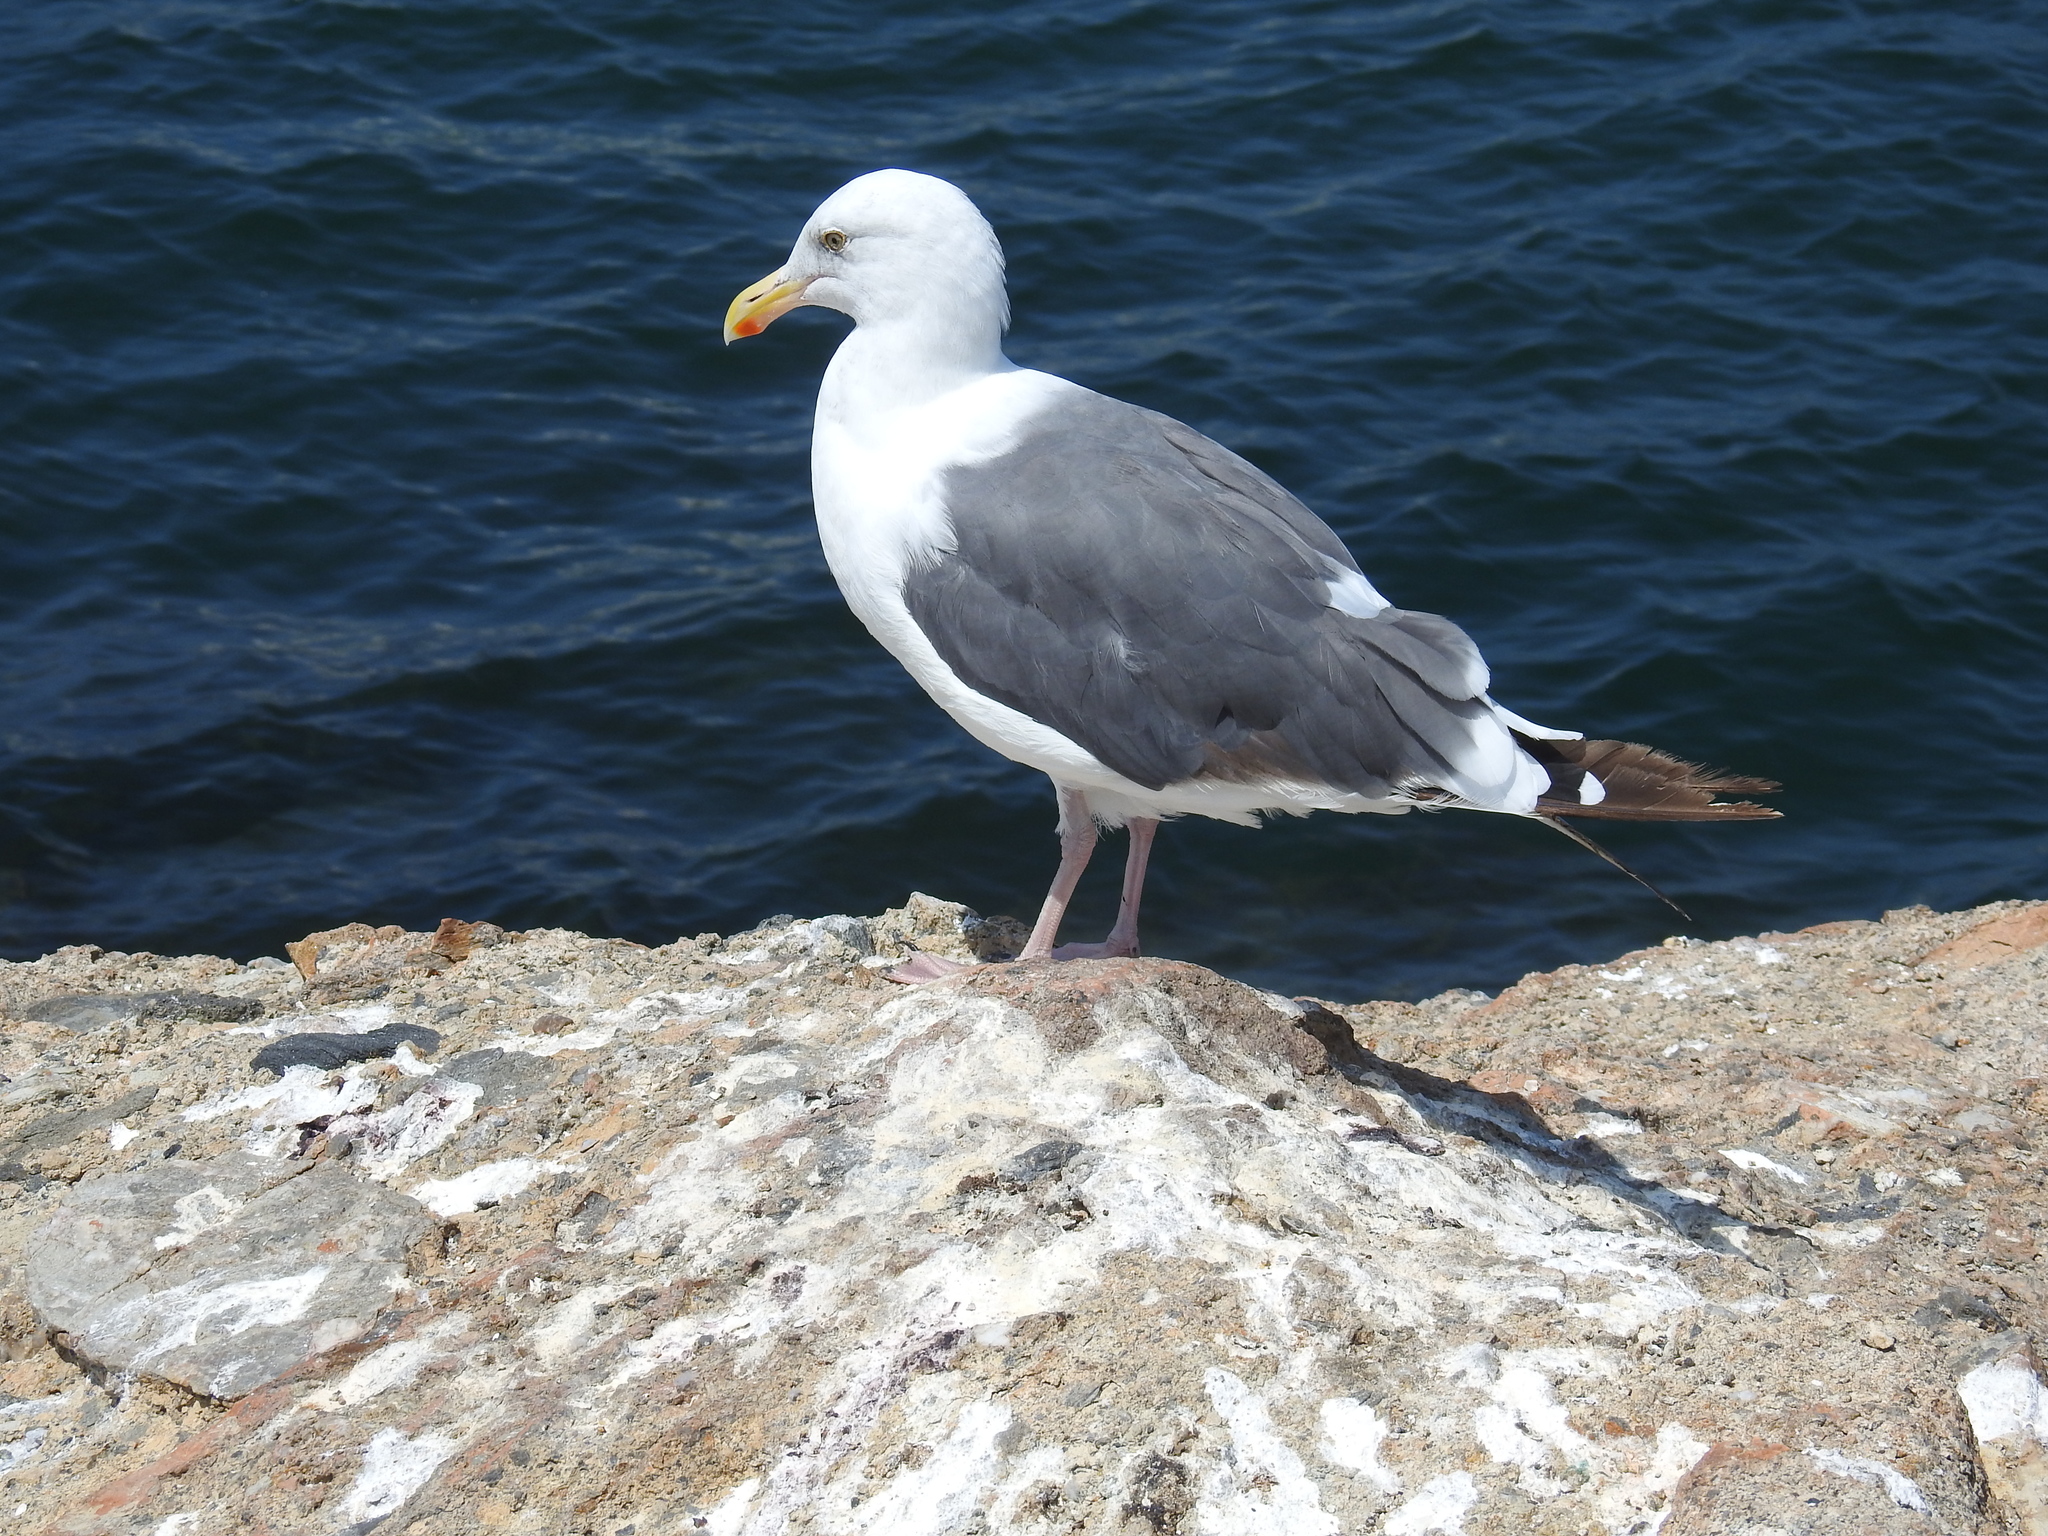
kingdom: Animalia
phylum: Chordata
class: Aves
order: Charadriiformes
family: Laridae
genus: Larus
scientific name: Larus occidentalis
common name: Western gull
